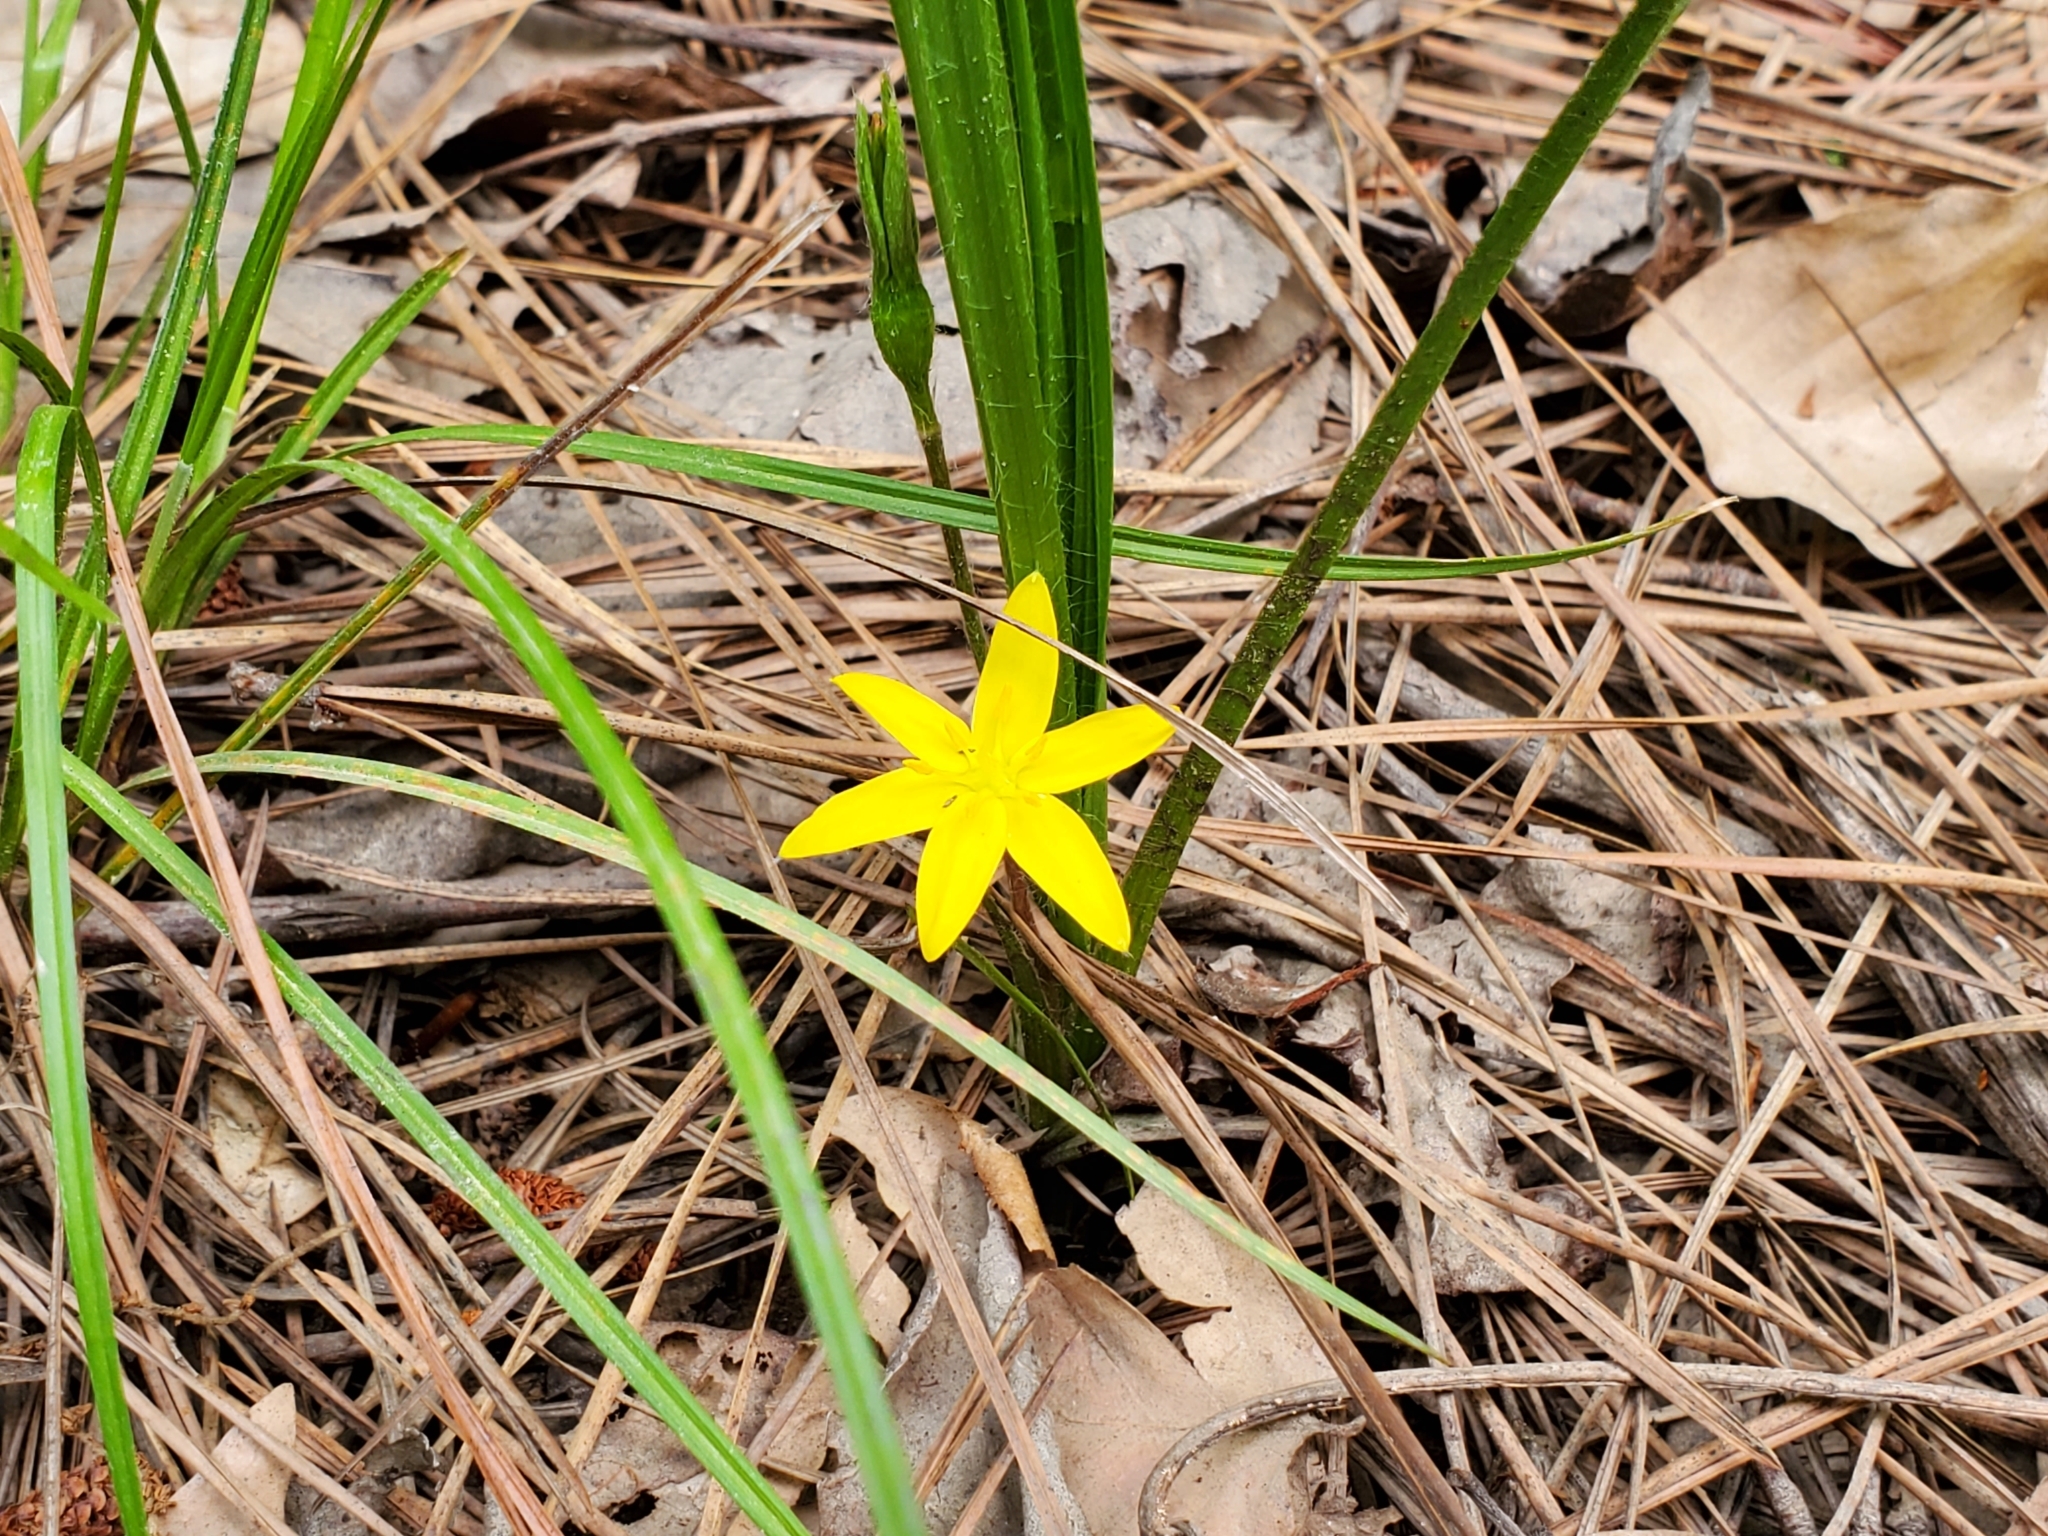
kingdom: Plantae
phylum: Tracheophyta
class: Liliopsida
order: Asparagales
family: Hypoxidaceae
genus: Hypoxis
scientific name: Hypoxis hirsuta
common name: Common goldstar
